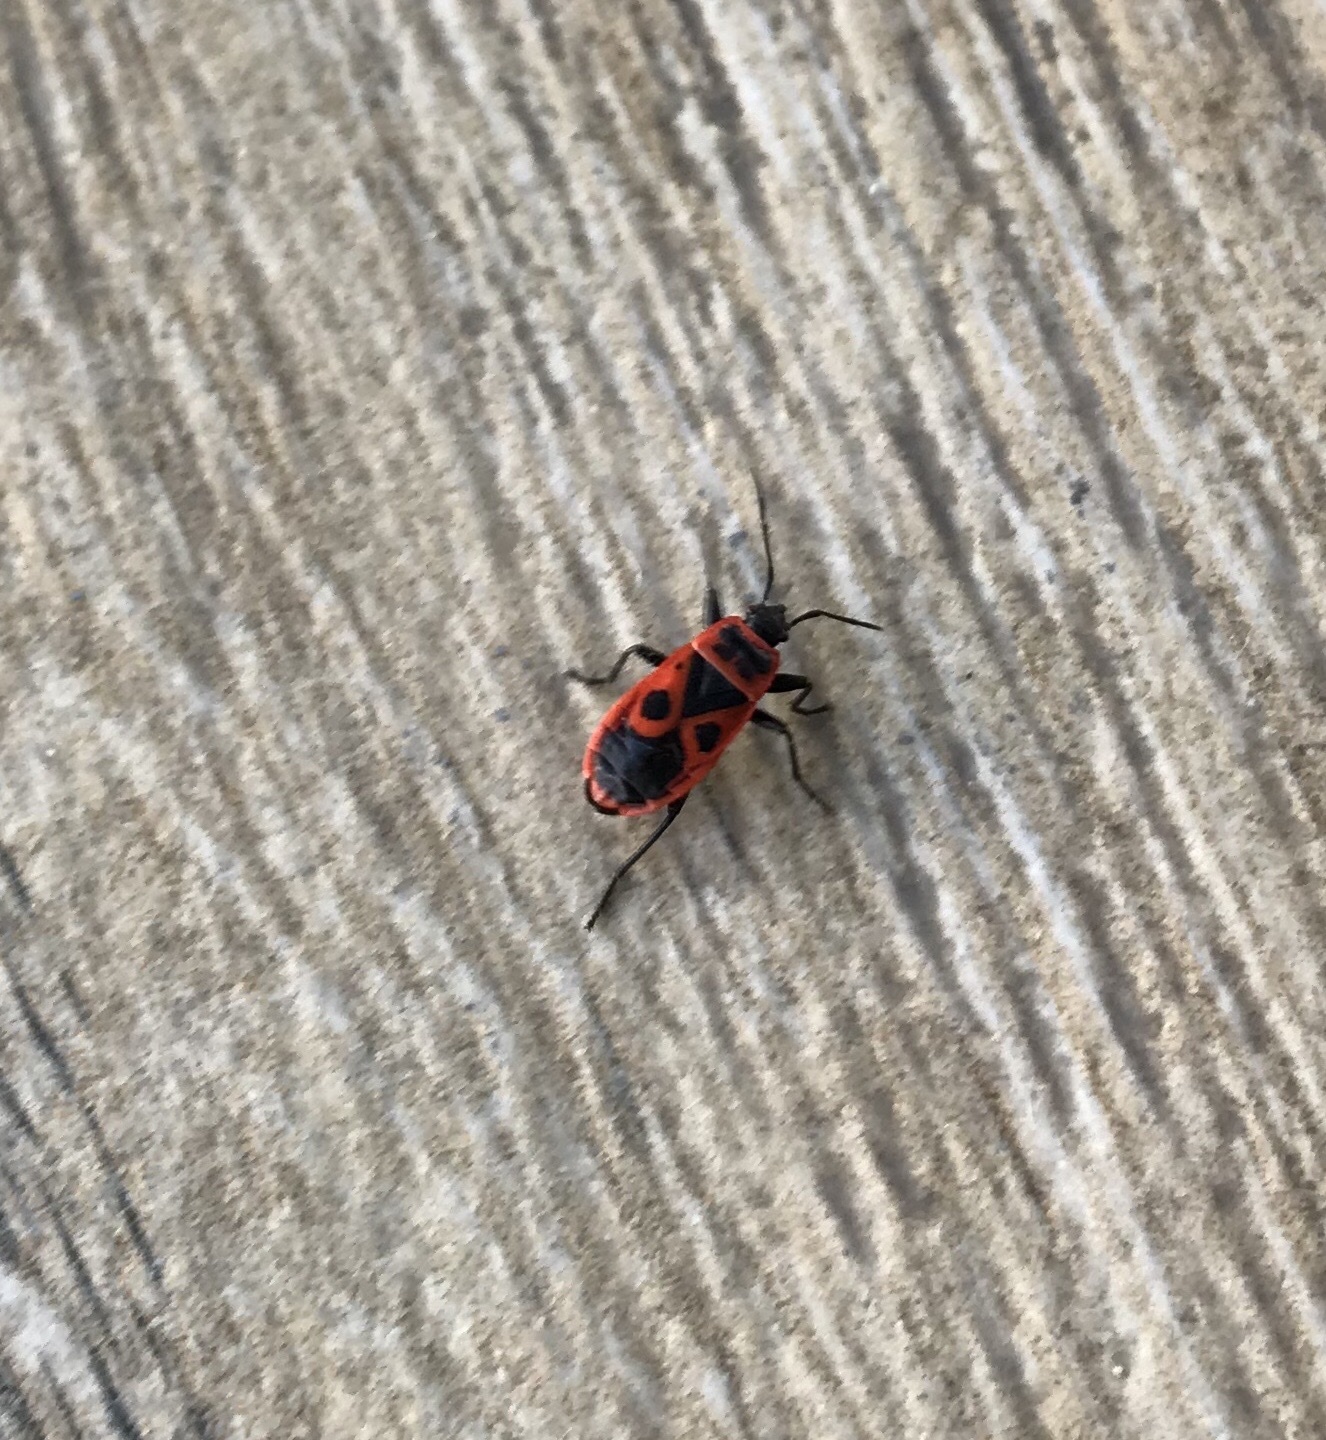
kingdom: Animalia
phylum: Arthropoda
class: Insecta
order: Hemiptera
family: Pyrrhocoridae
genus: Pyrrhocoris
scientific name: Pyrrhocoris apterus
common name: Firebug
